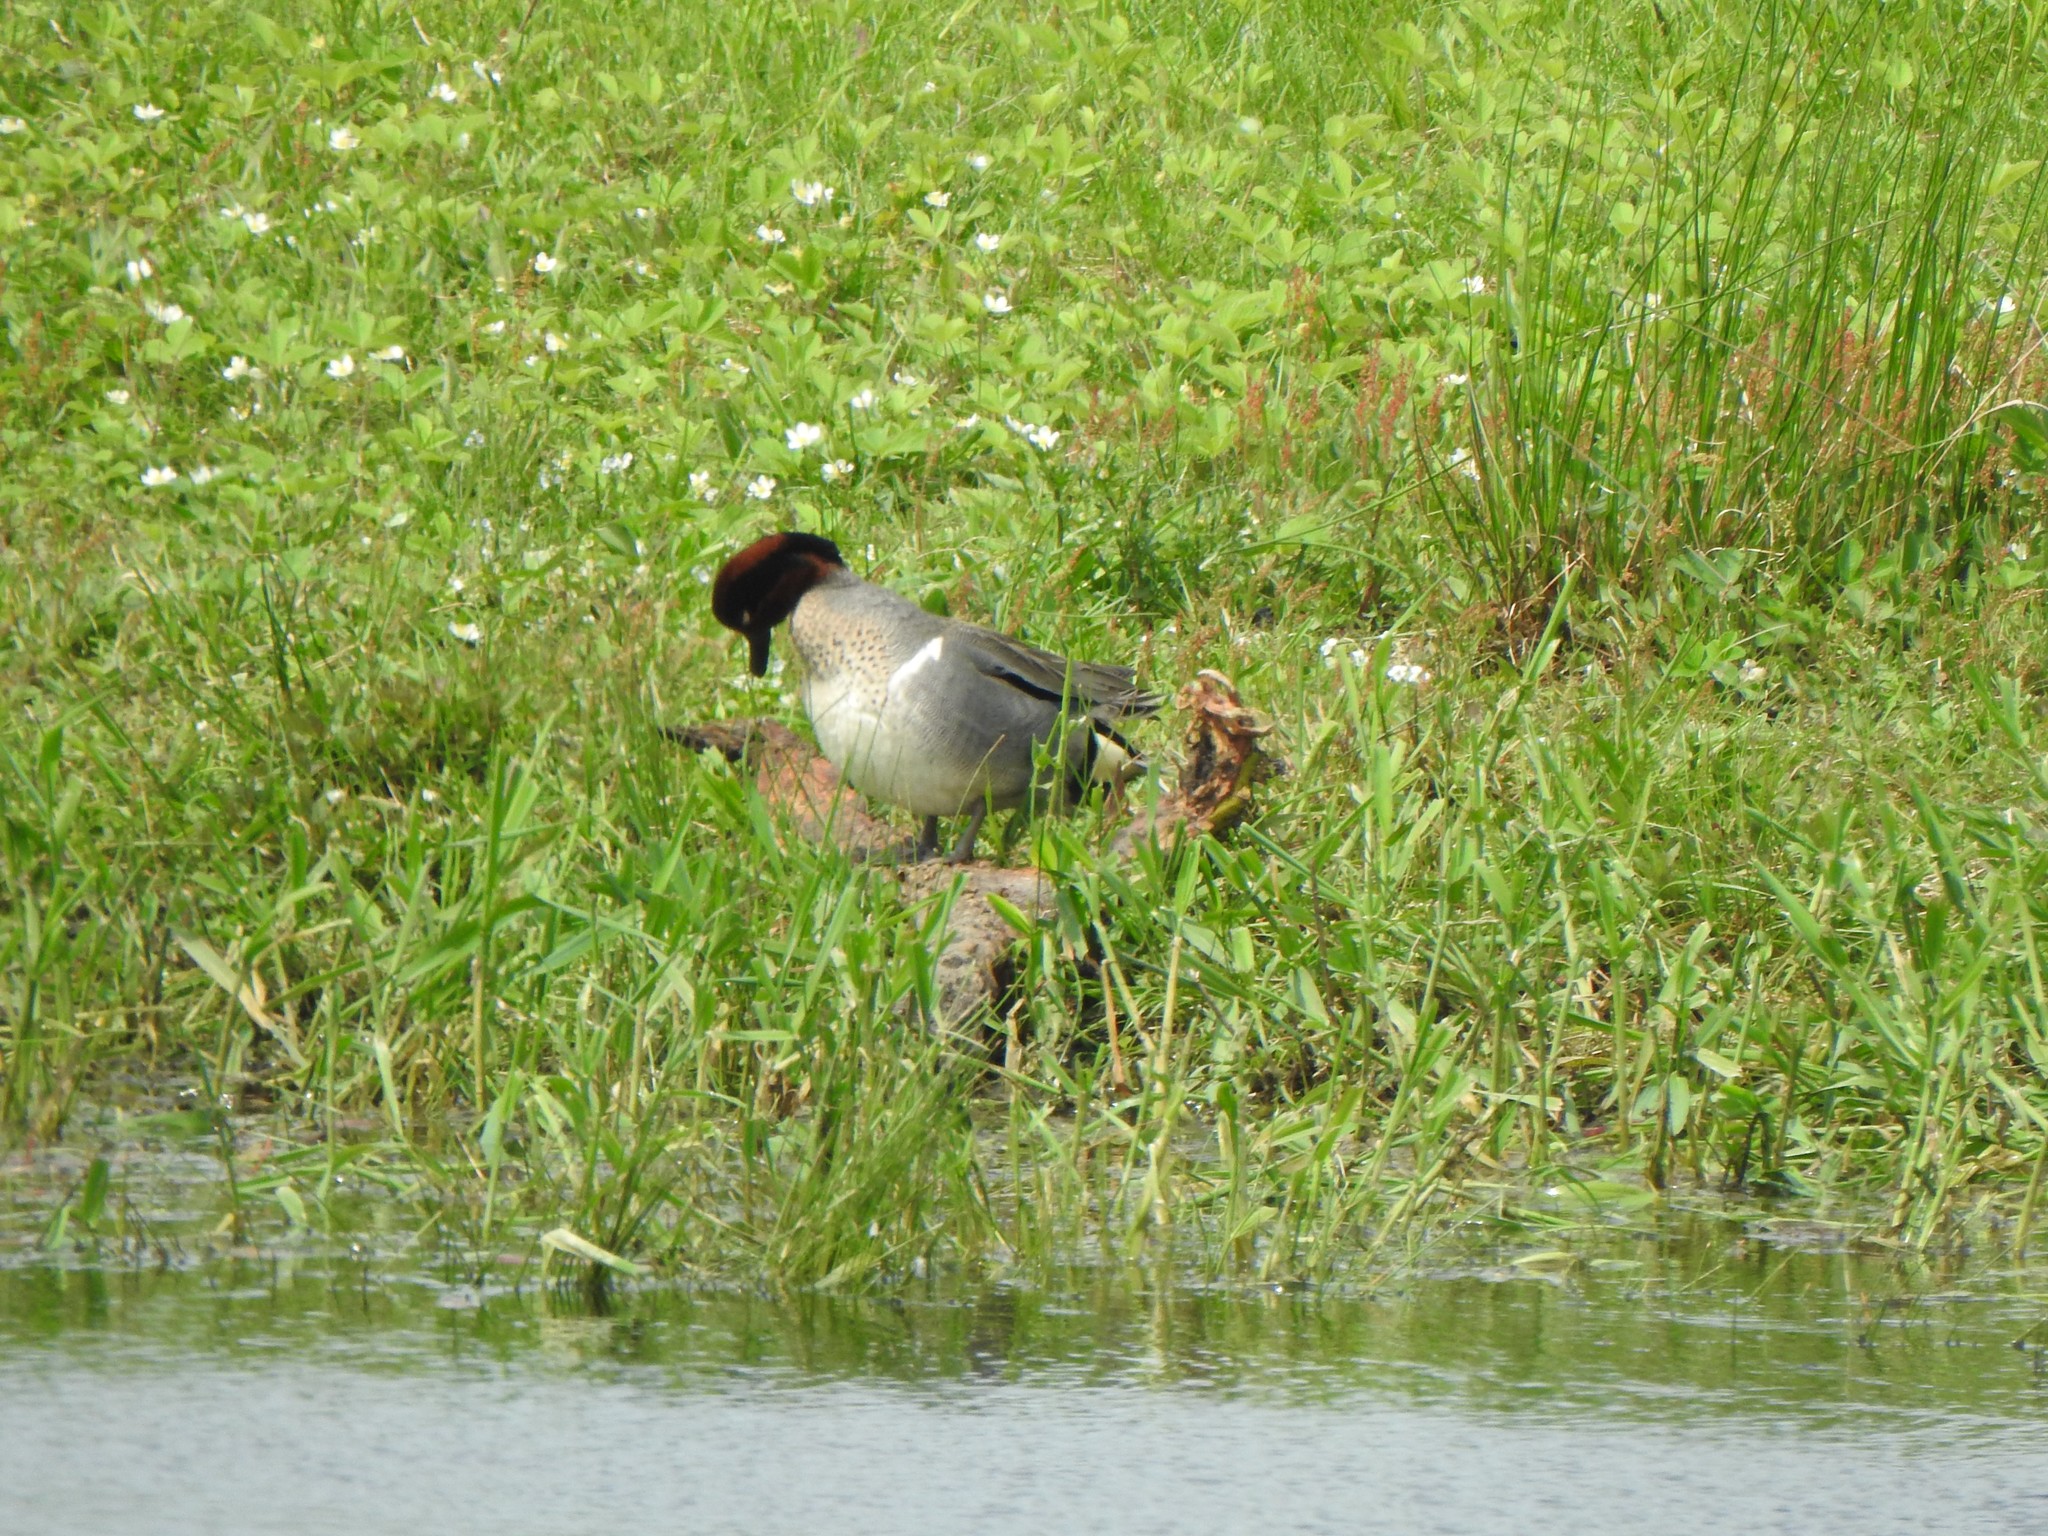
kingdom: Animalia
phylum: Chordata
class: Aves
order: Anseriformes
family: Anatidae
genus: Anas
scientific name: Anas carolinensis
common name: Green-winged teal
